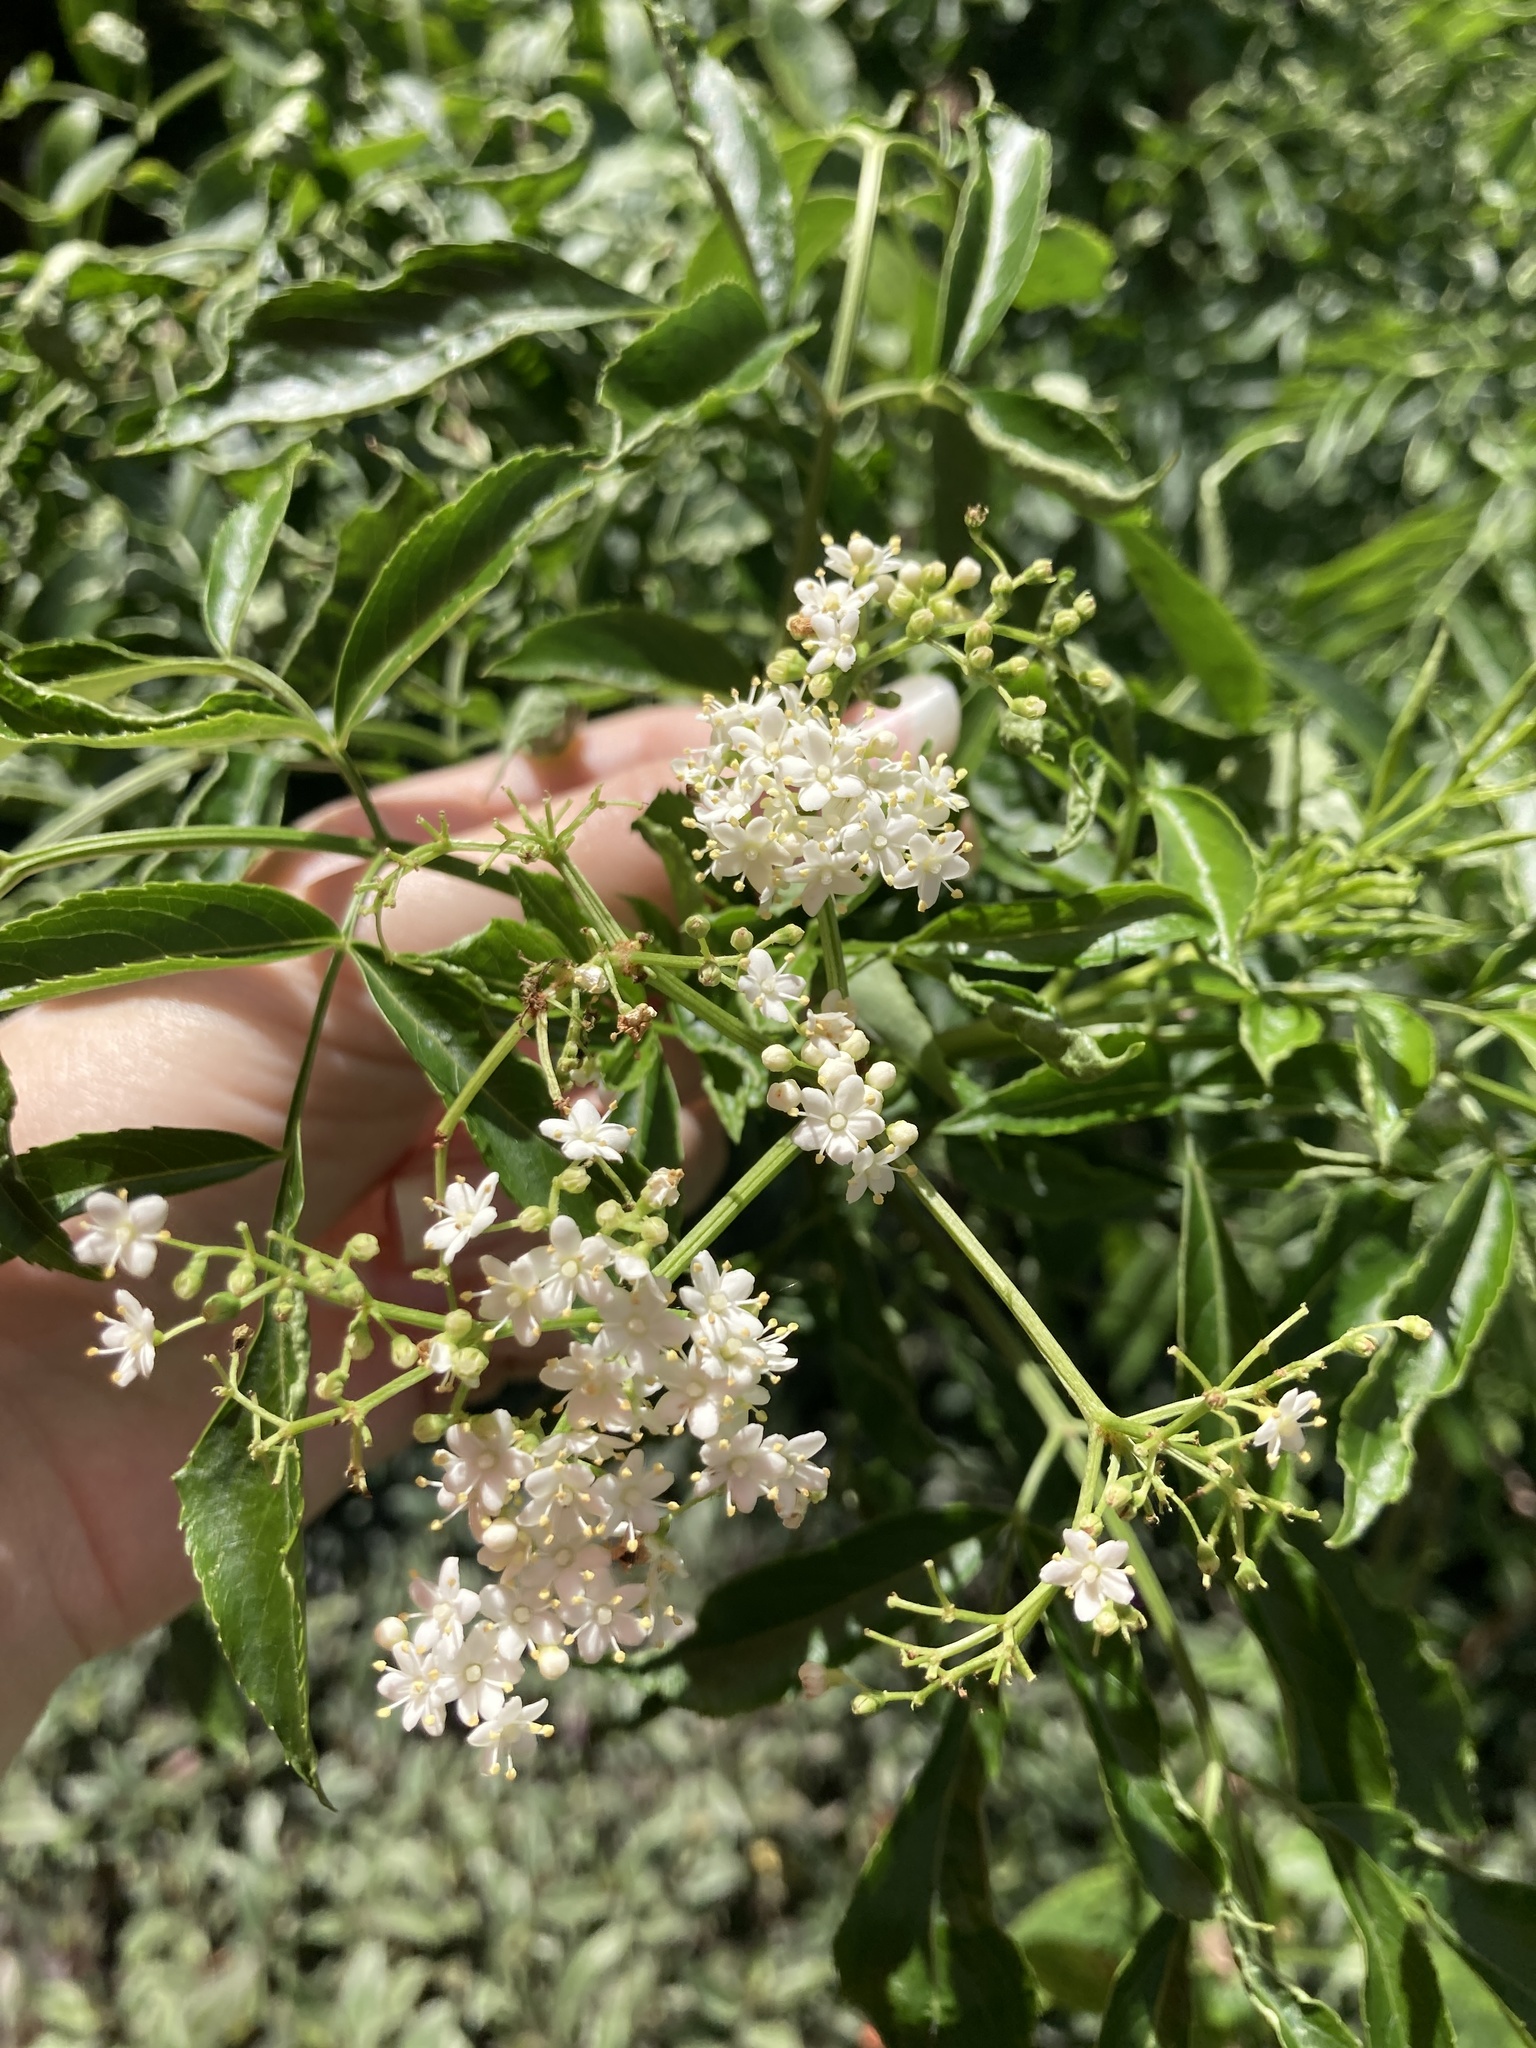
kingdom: Plantae
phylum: Tracheophyta
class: Magnoliopsida
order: Dipsacales
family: Viburnaceae
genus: Sambucus
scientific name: Sambucus canadensis
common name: American elder
